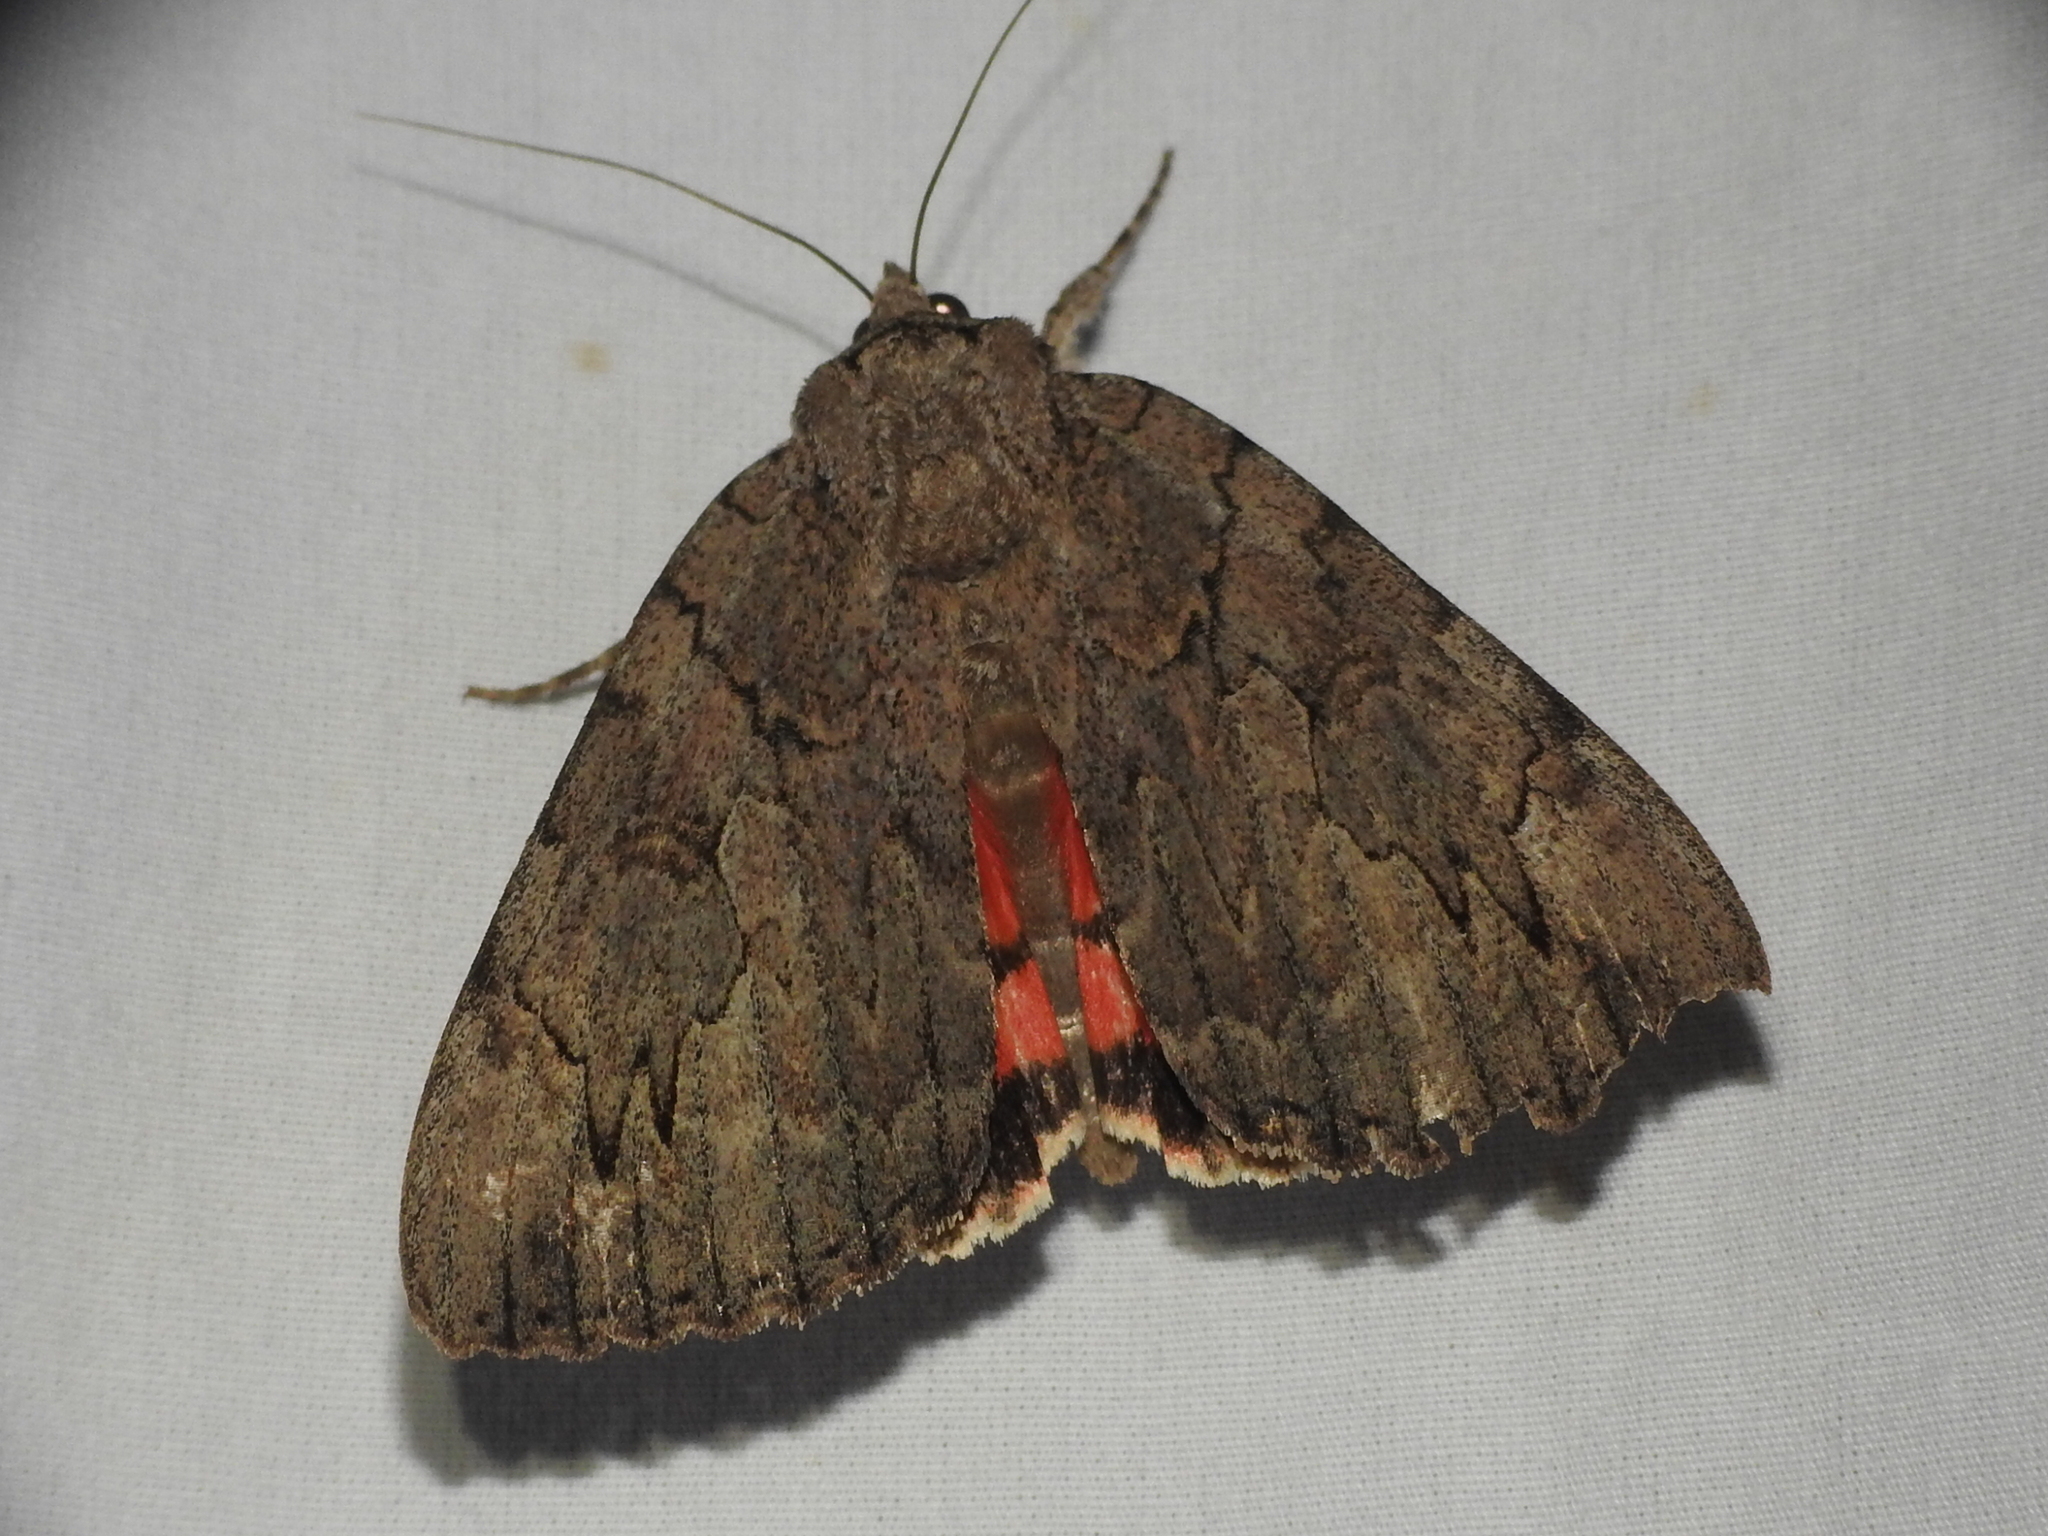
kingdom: Animalia
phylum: Arthropoda
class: Insecta
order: Lepidoptera
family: Erebidae
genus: Catocala
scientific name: Catocala amatrix
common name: Sweetheart underwing
